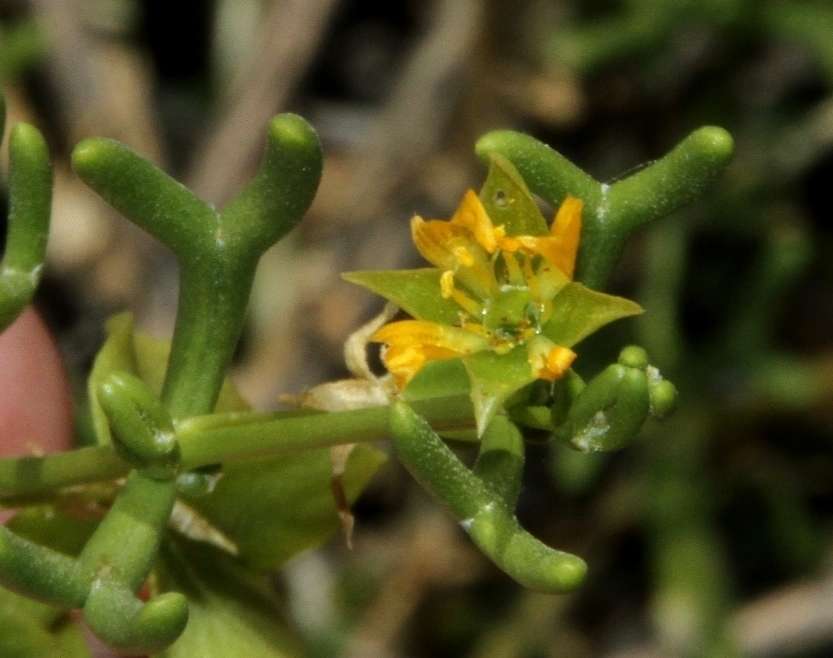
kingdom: Plantae
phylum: Tracheophyta
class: Magnoliopsida
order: Zygophyllales
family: Zygophyllaceae
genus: Roepera
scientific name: Roepera eremaea
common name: Climbing twinleaf
